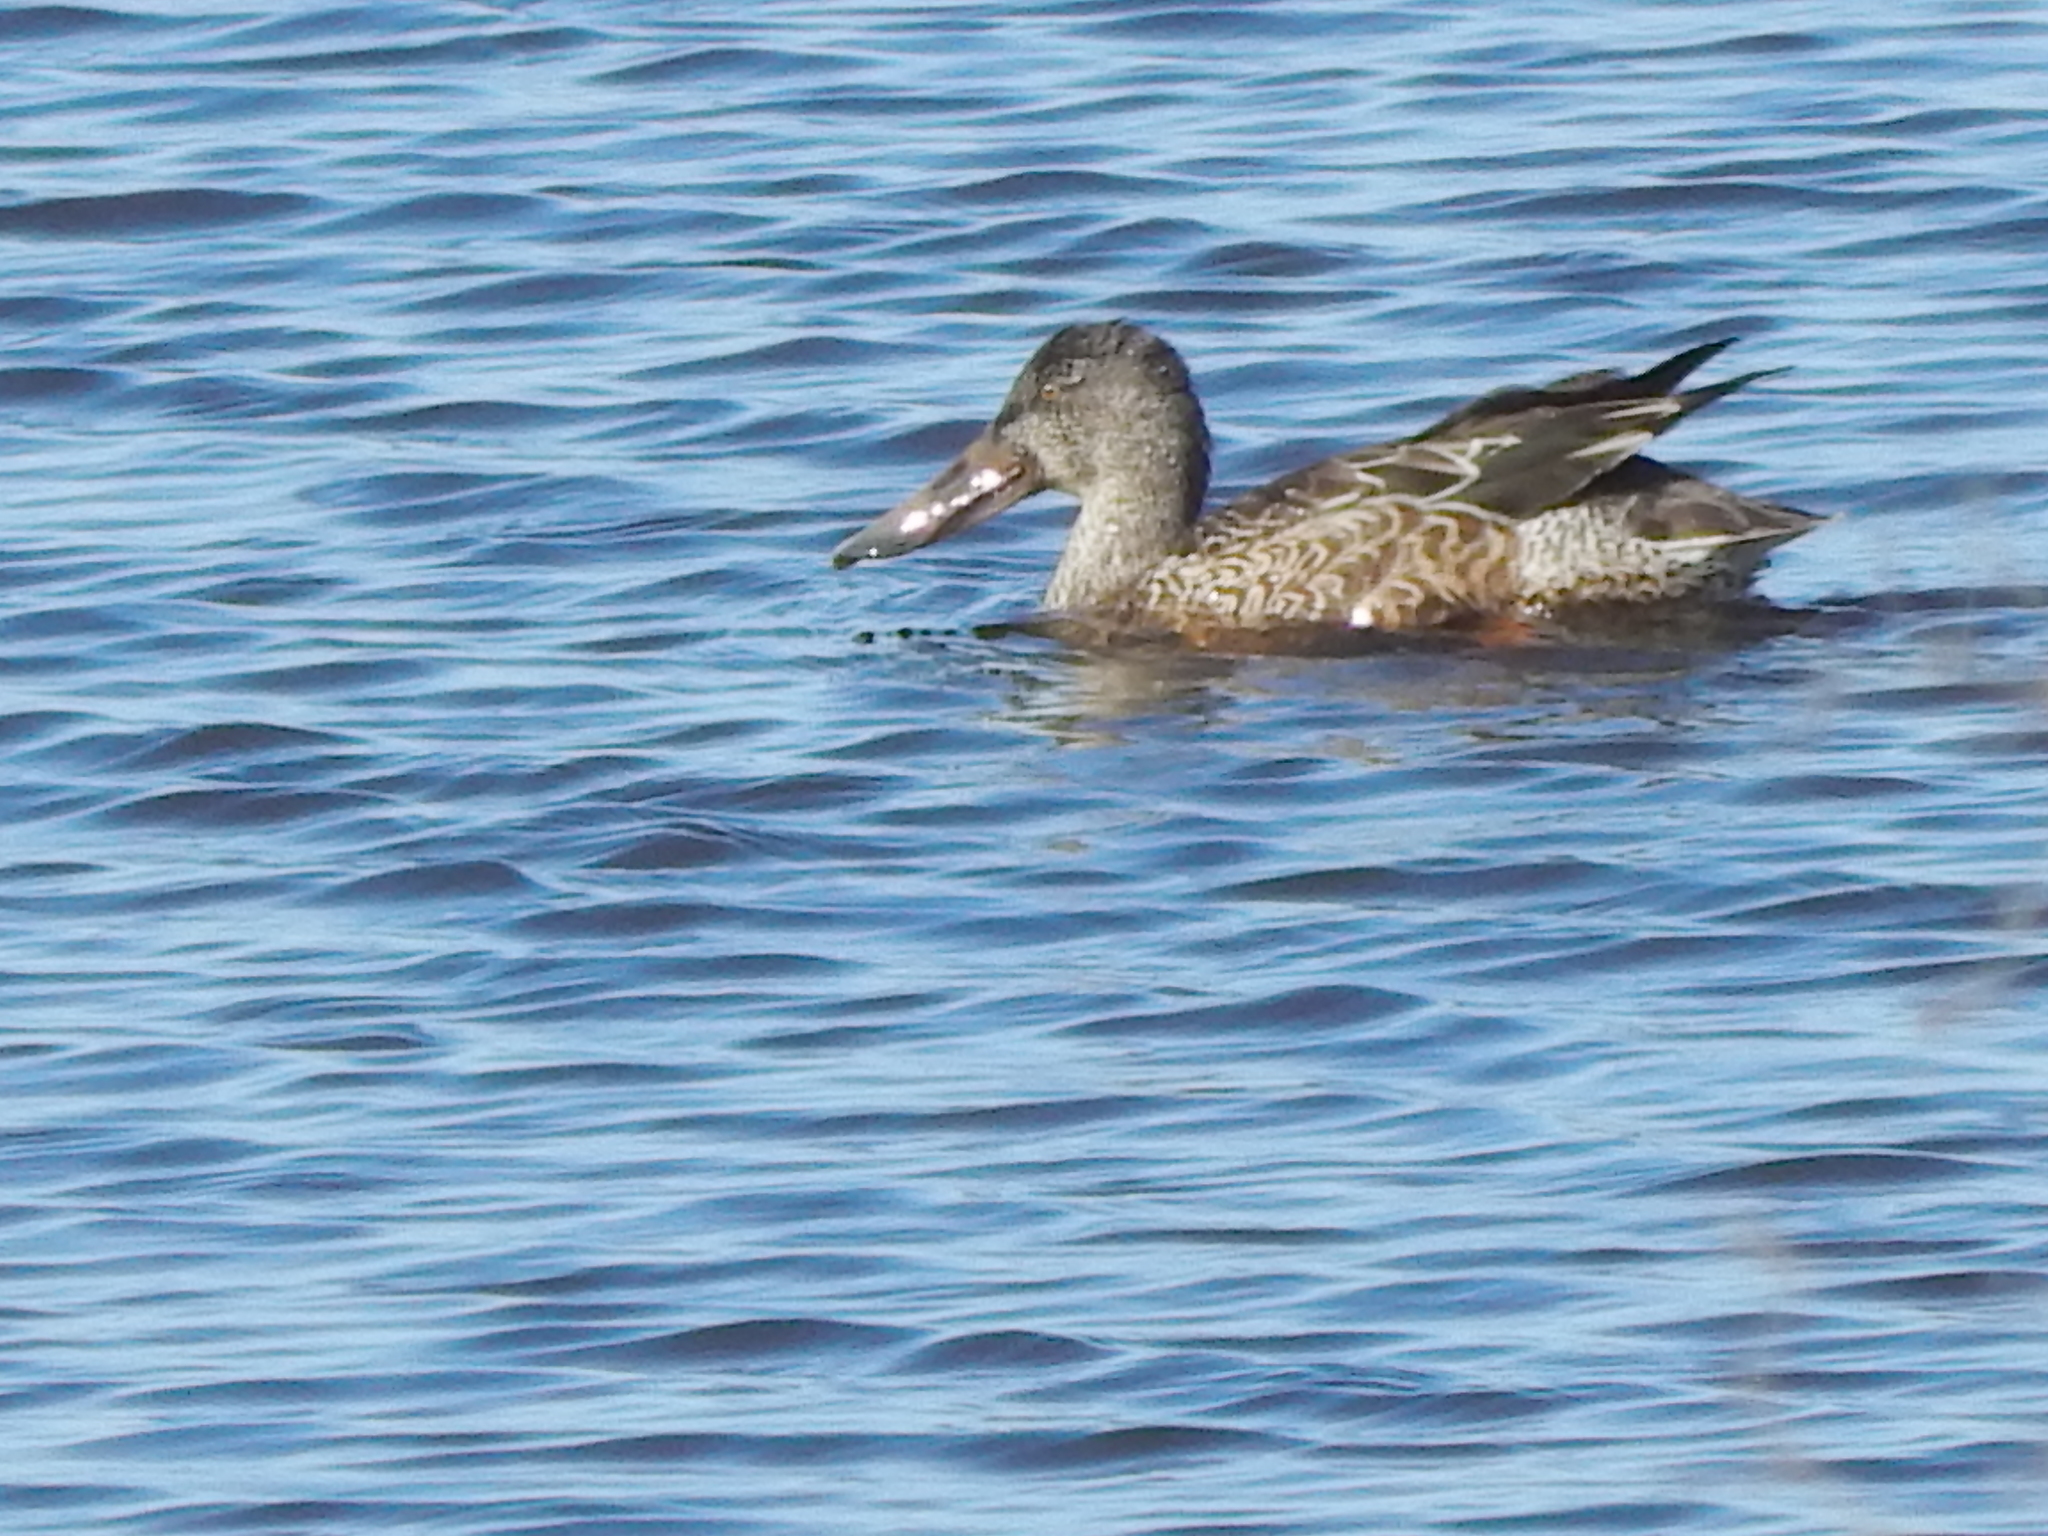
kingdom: Animalia
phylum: Chordata
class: Aves
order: Anseriformes
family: Anatidae
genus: Spatula
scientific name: Spatula clypeata
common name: Northern shoveler
